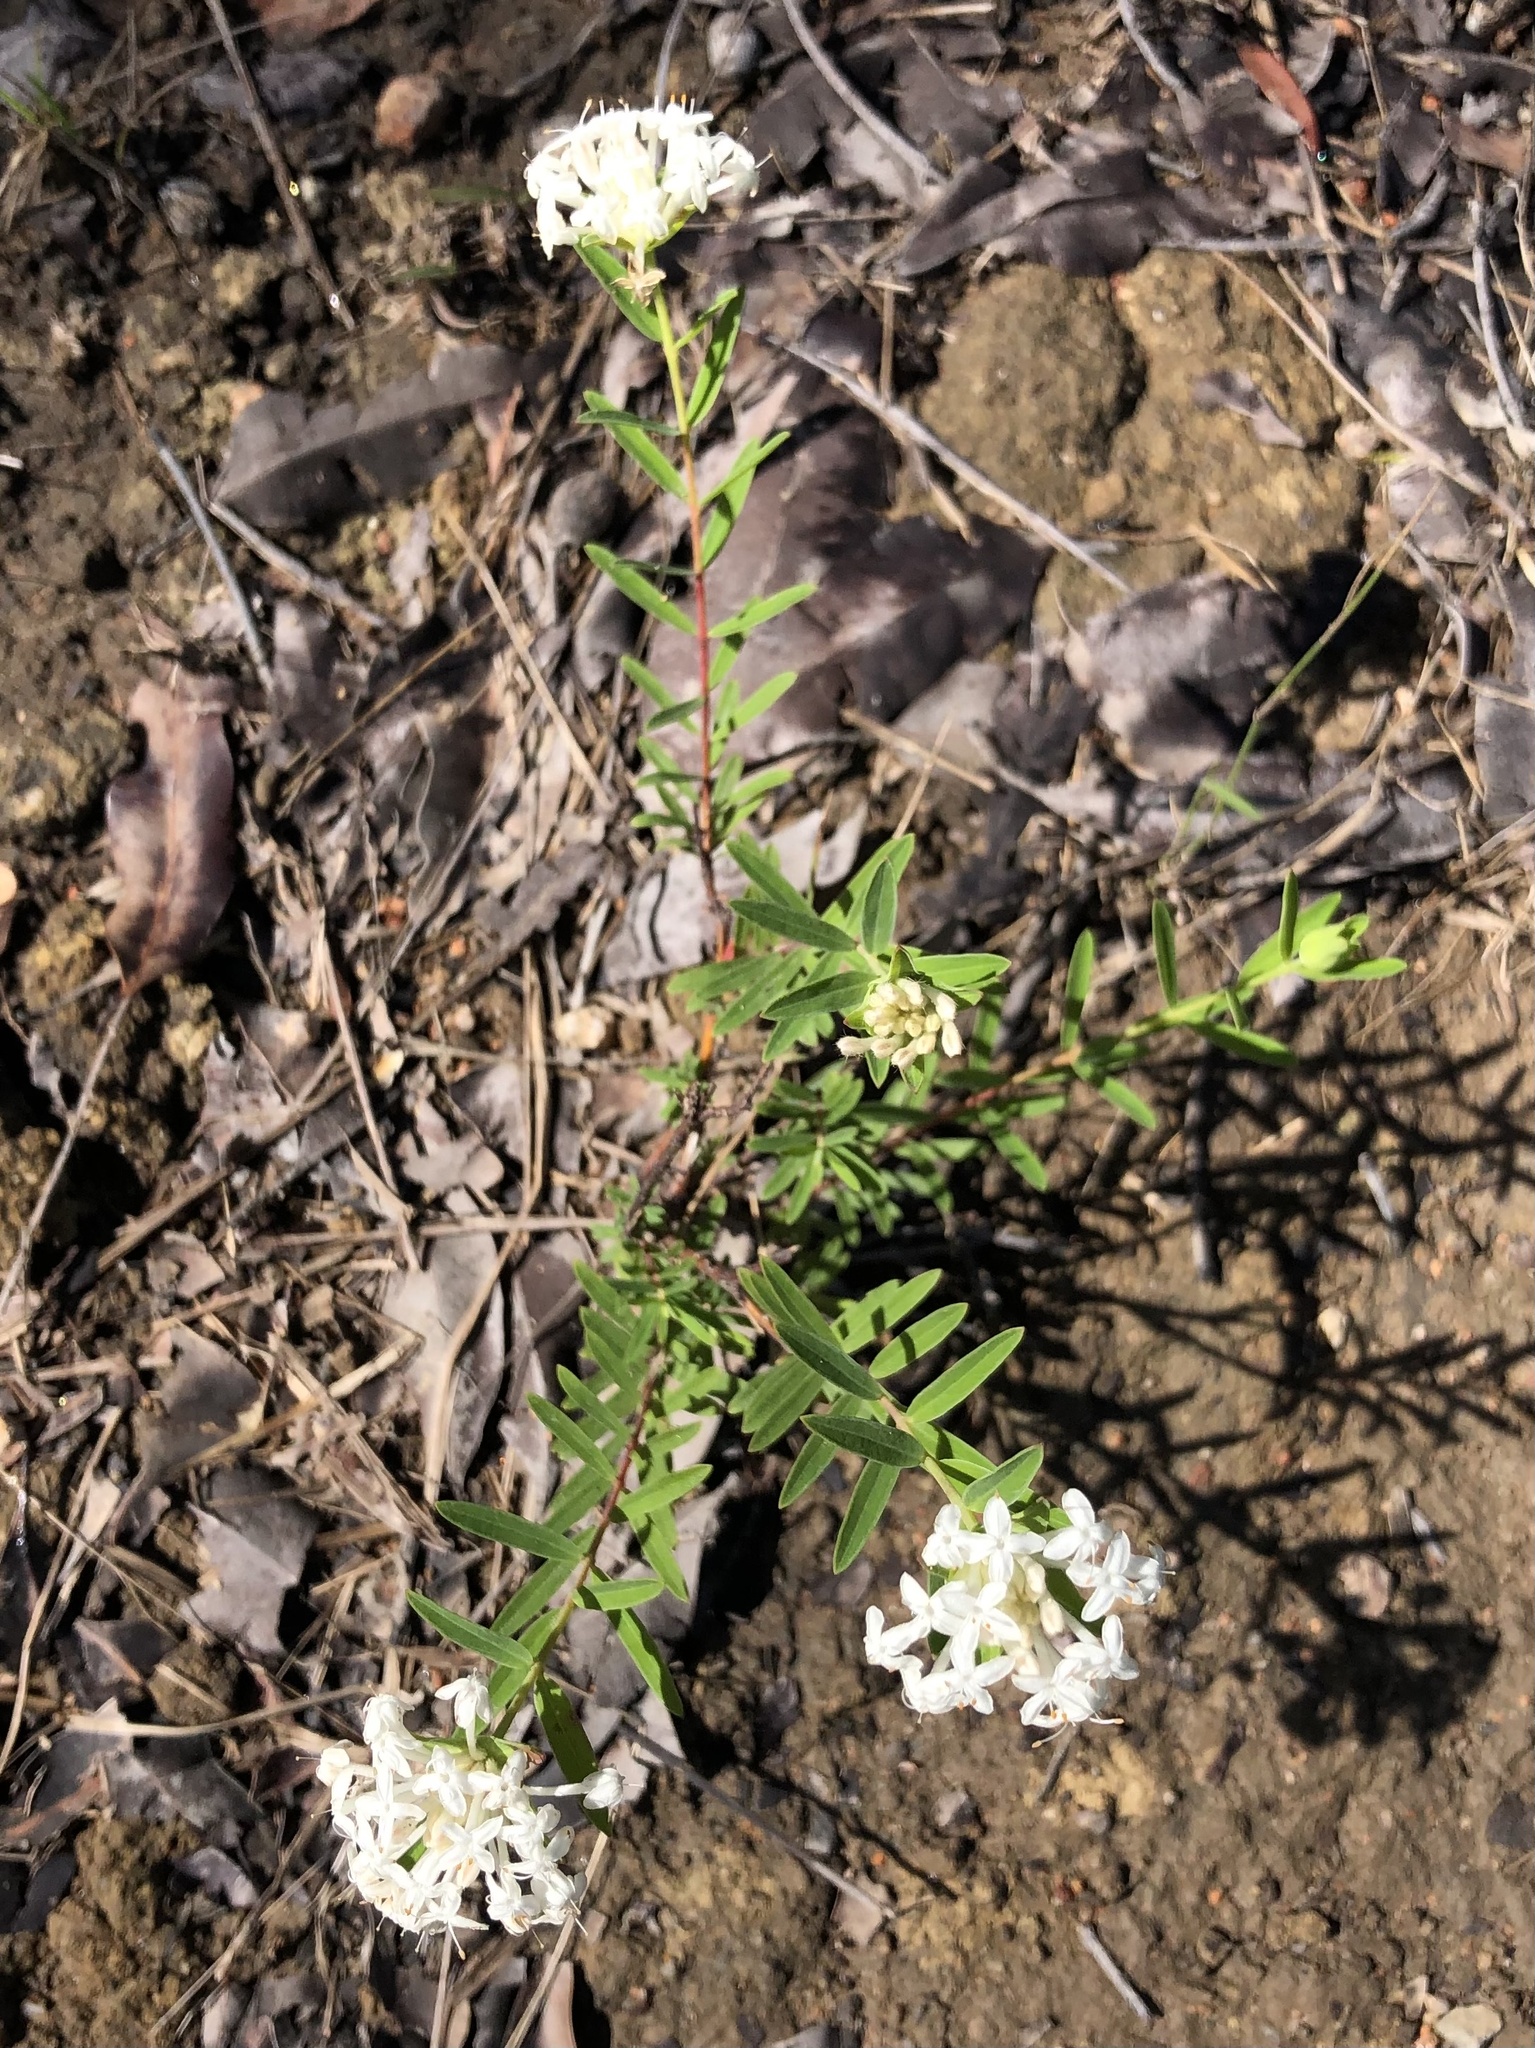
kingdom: Plantae
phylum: Tracheophyta
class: Magnoliopsida
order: Malvales
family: Thymelaeaceae
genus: Pimelea
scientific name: Pimelea linifolia
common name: Queen-of-the-bush
